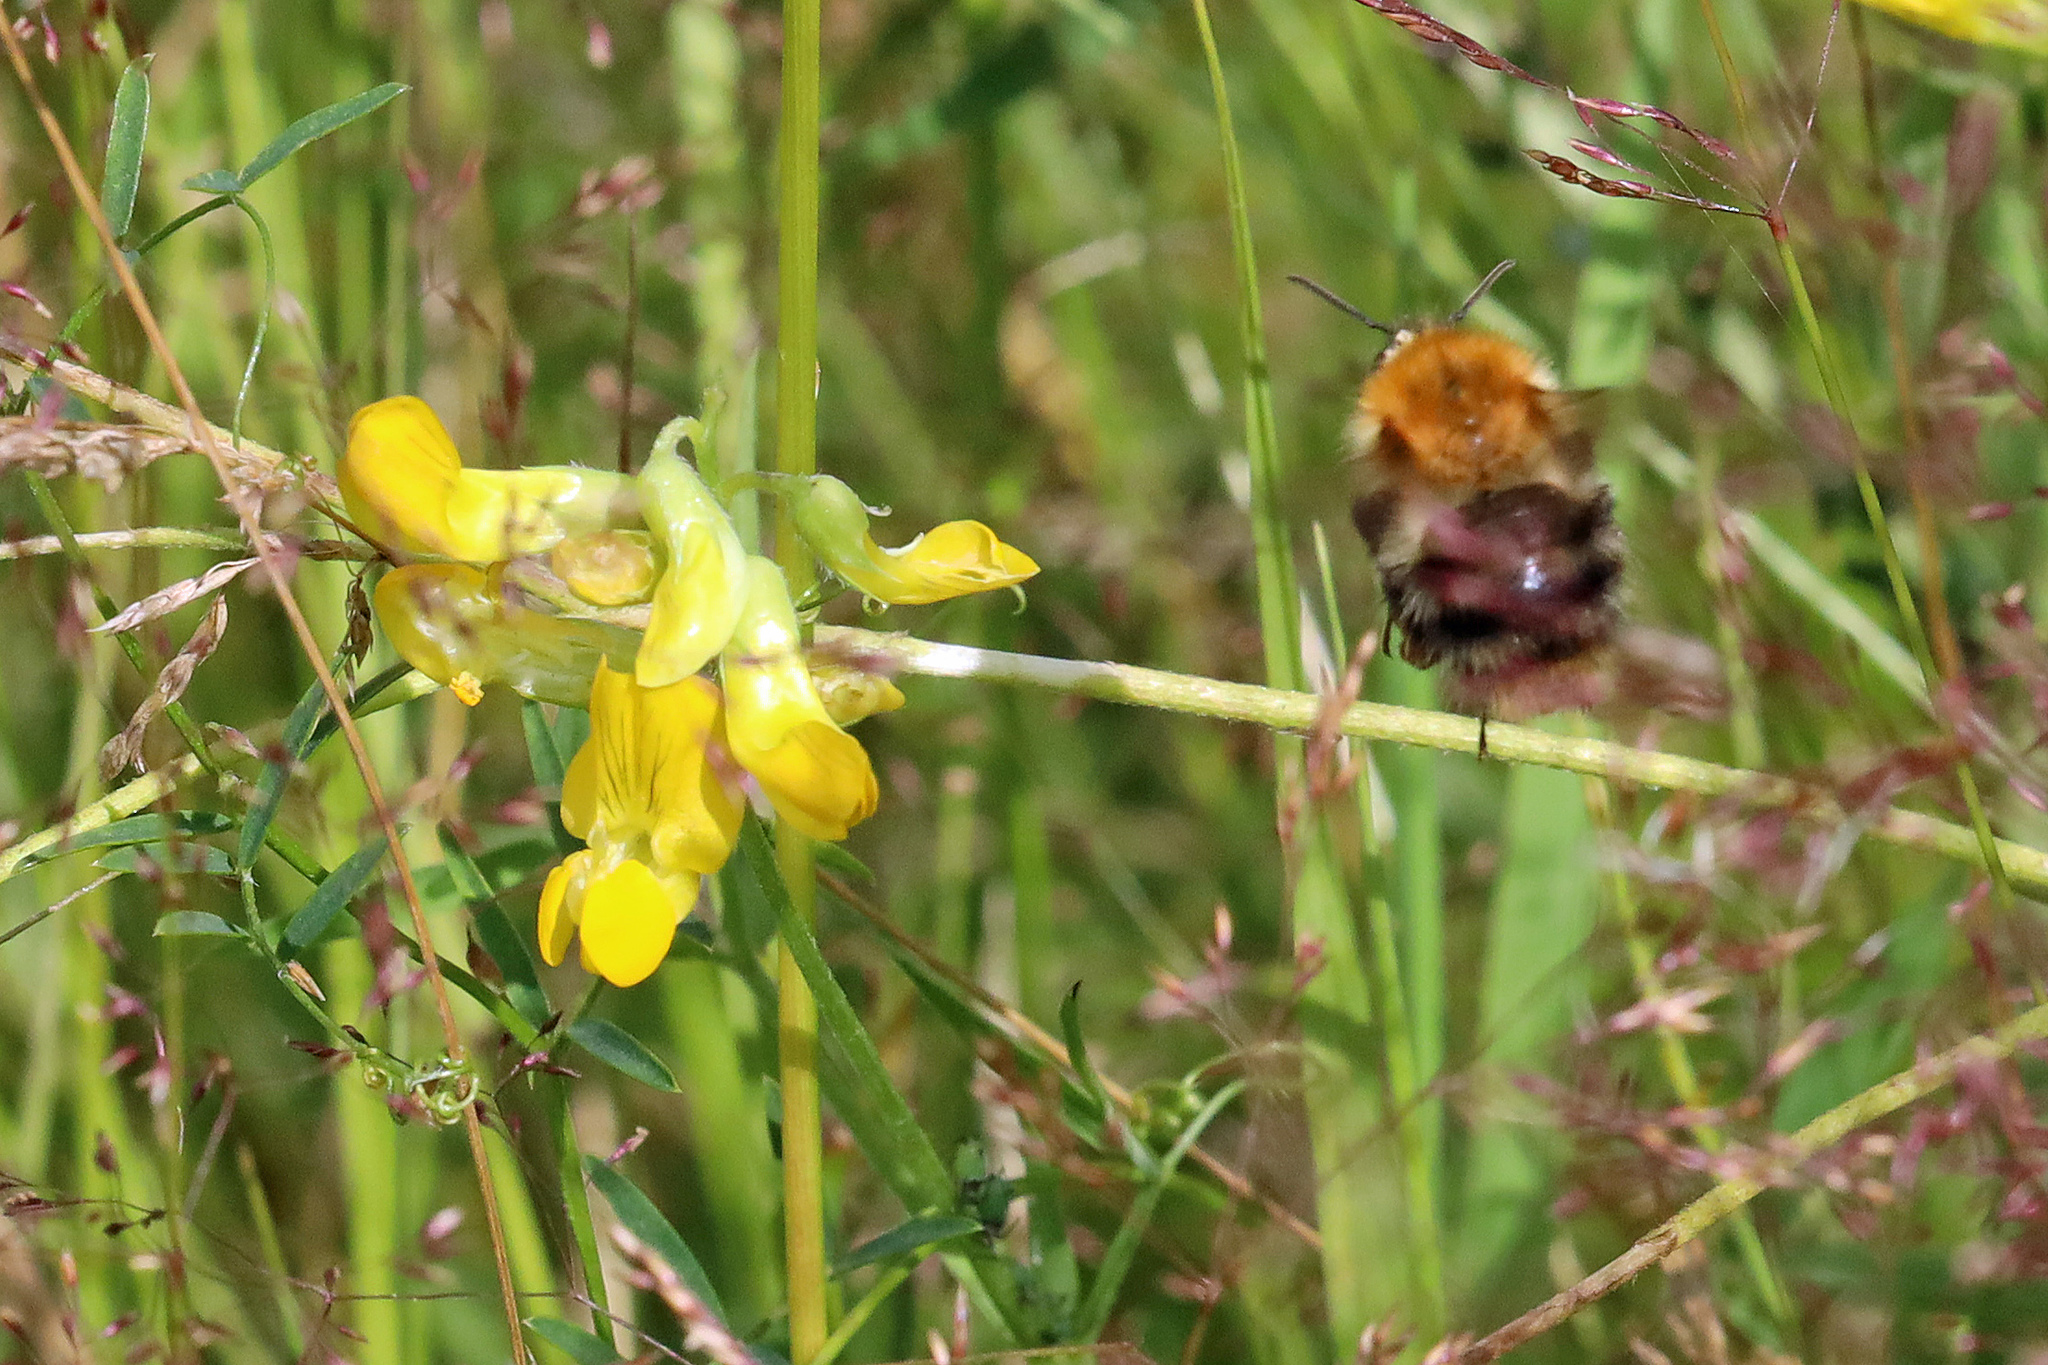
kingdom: Animalia
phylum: Arthropoda
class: Insecta
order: Hymenoptera
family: Apidae
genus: Bombus
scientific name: Bombus pascuorum
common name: Common carder bee
